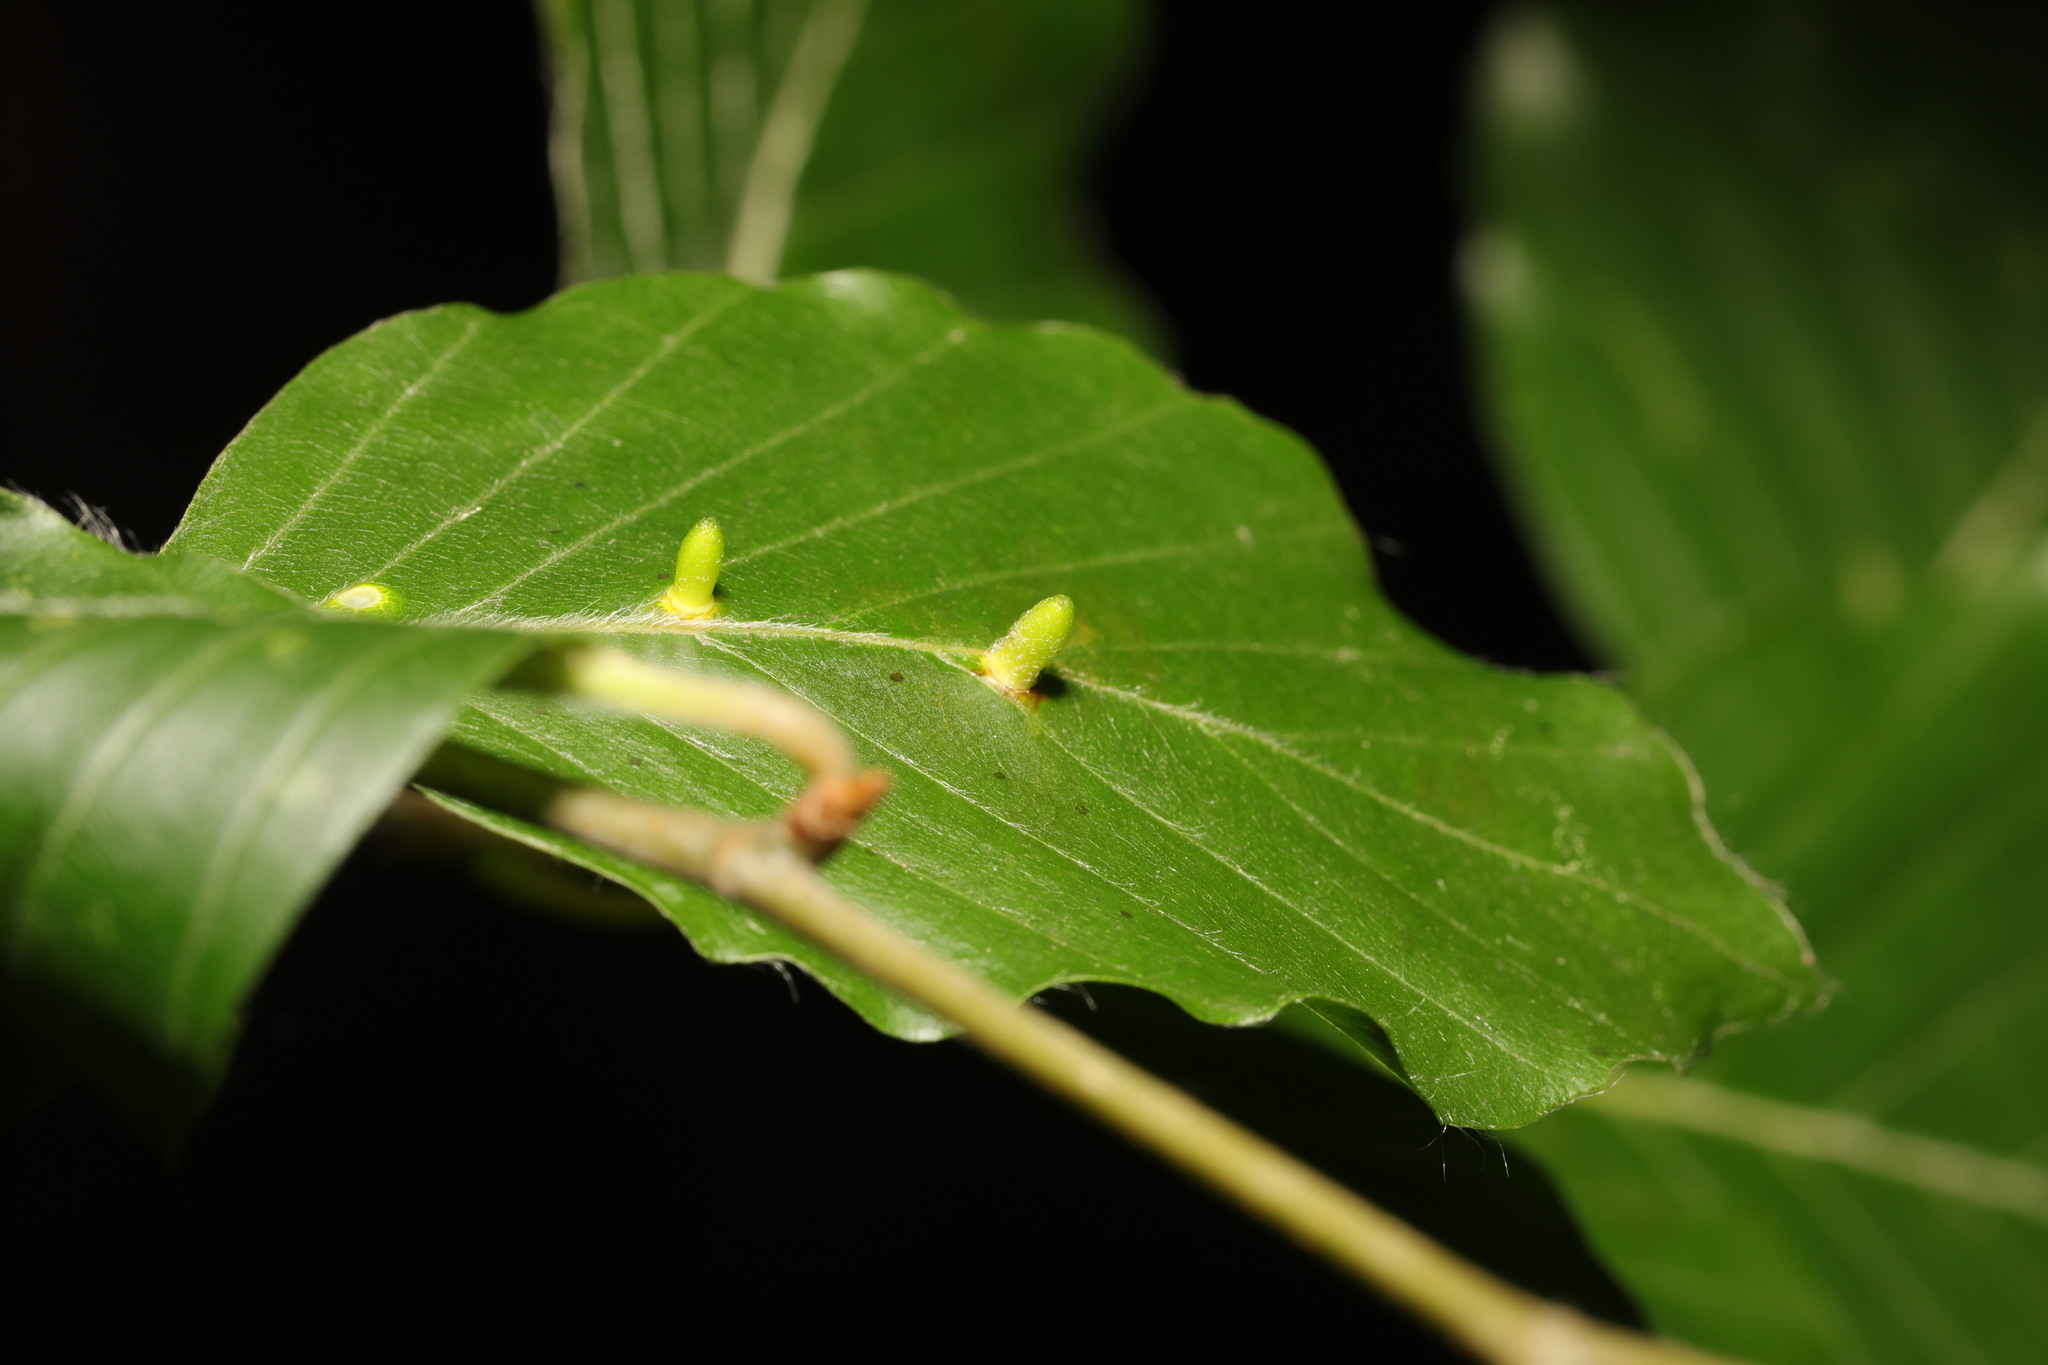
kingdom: Animalia
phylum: Arthropoda
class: Insecta
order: Diptera
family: Cecidomyiidae
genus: Hartigiola
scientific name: Hartigiola annulipes
